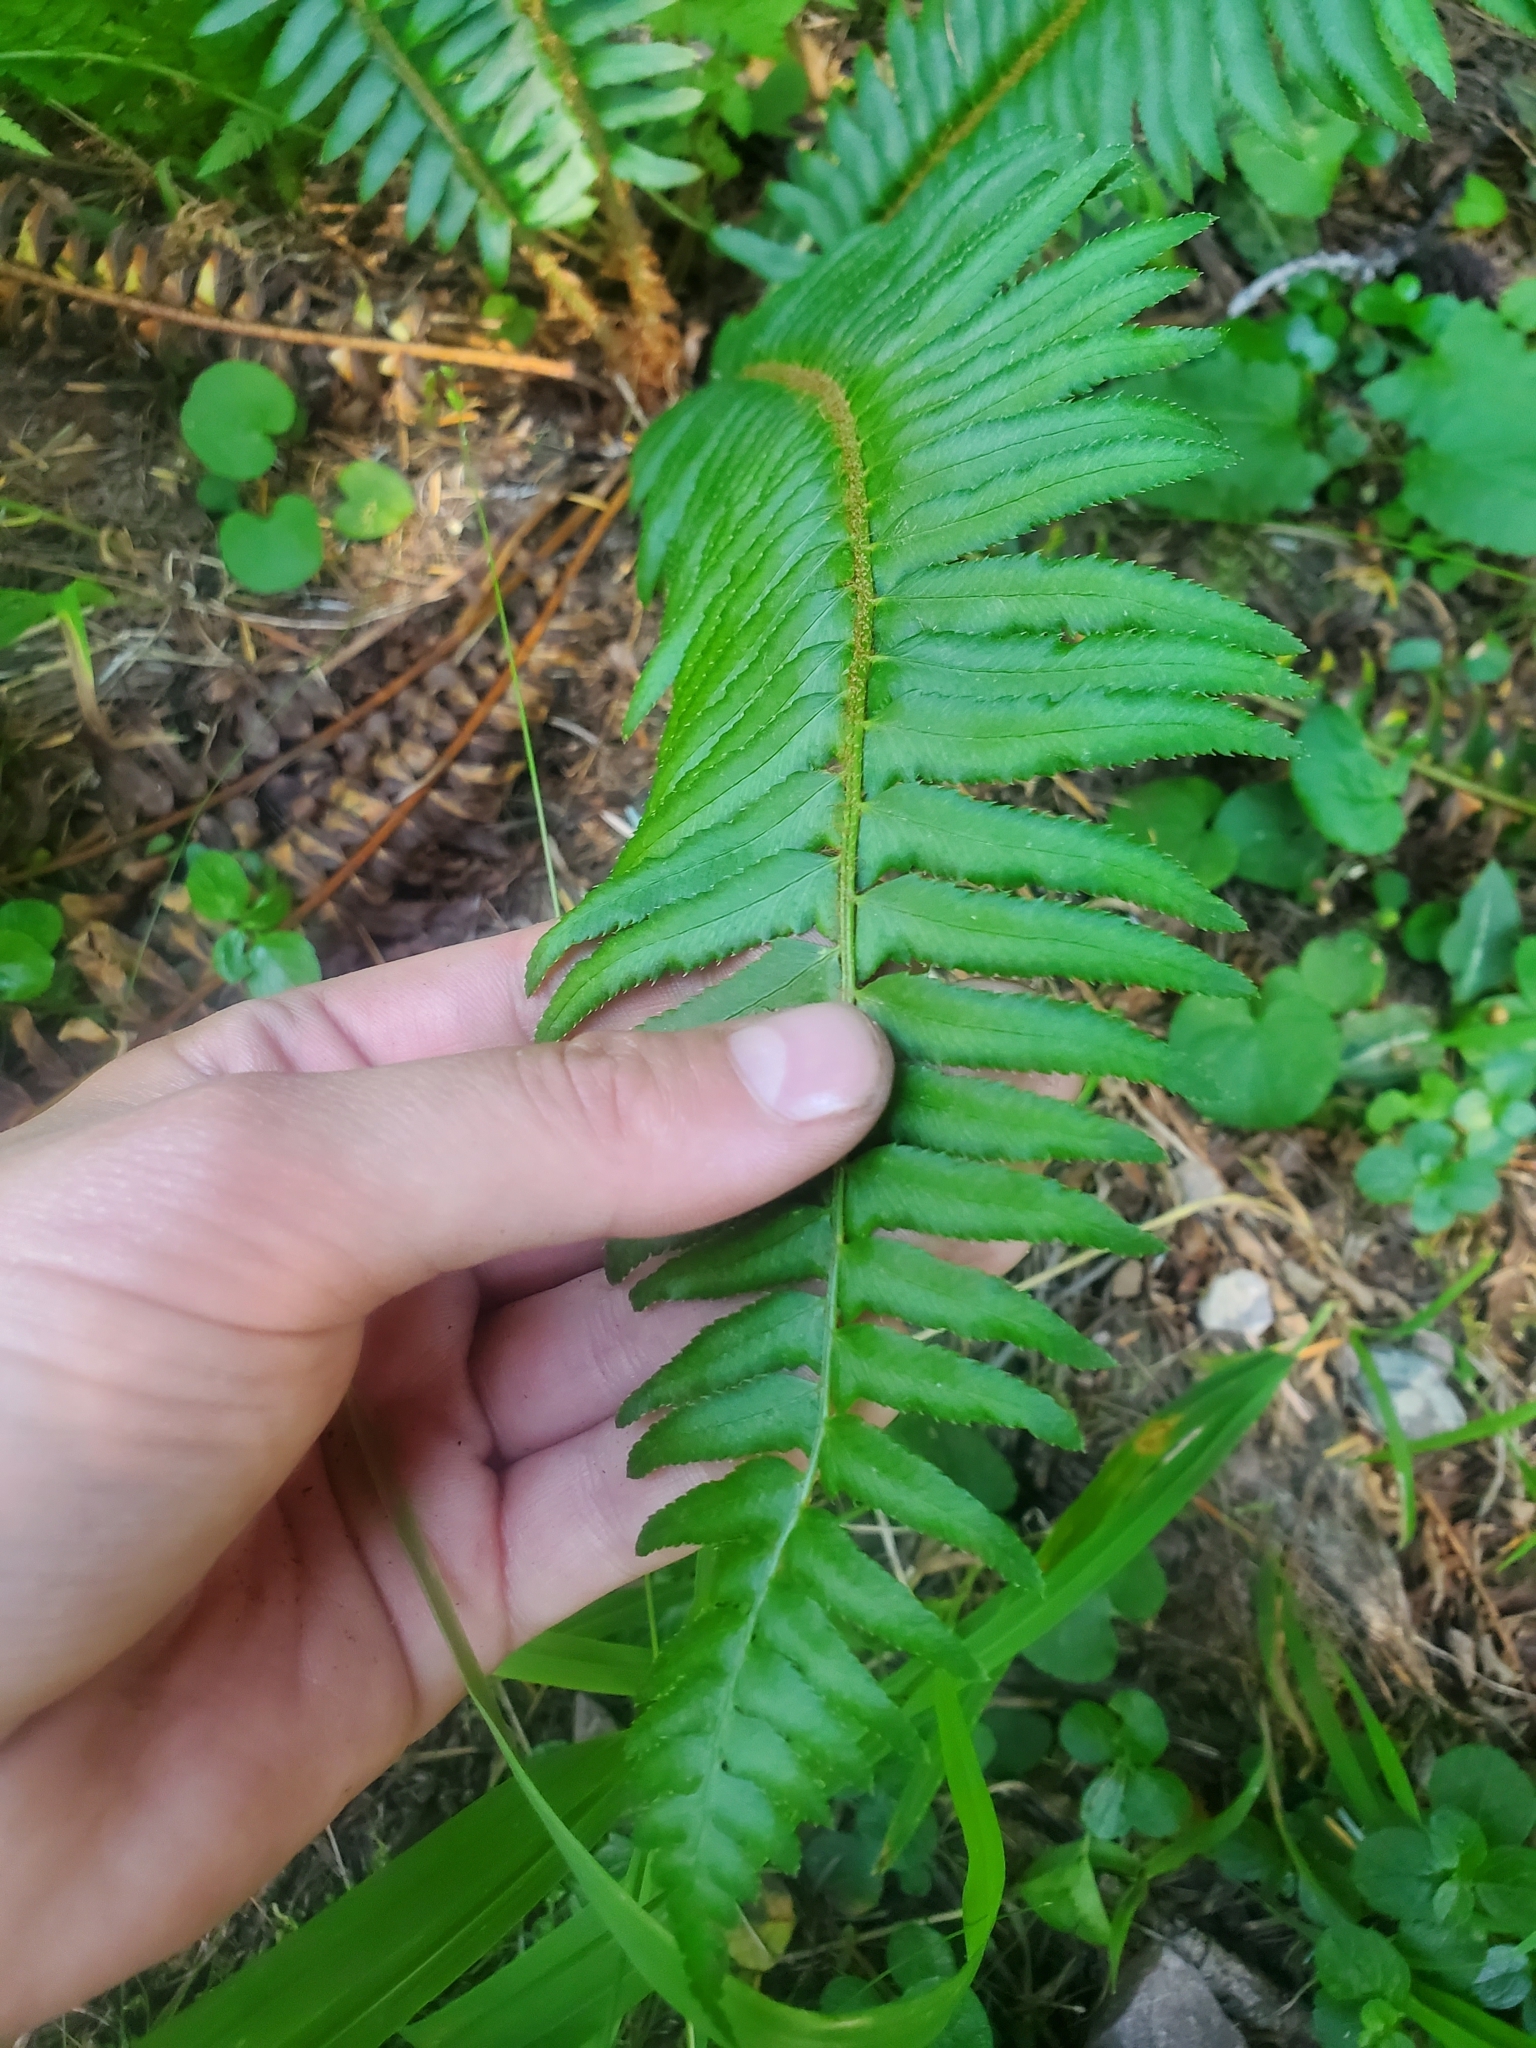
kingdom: Plantae
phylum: Tracheophyta
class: Polypodiopsida
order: Polypodiales
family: Dryopteridaceae
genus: Polystichum
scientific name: Polystichum munitum
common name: Western sword-fern
